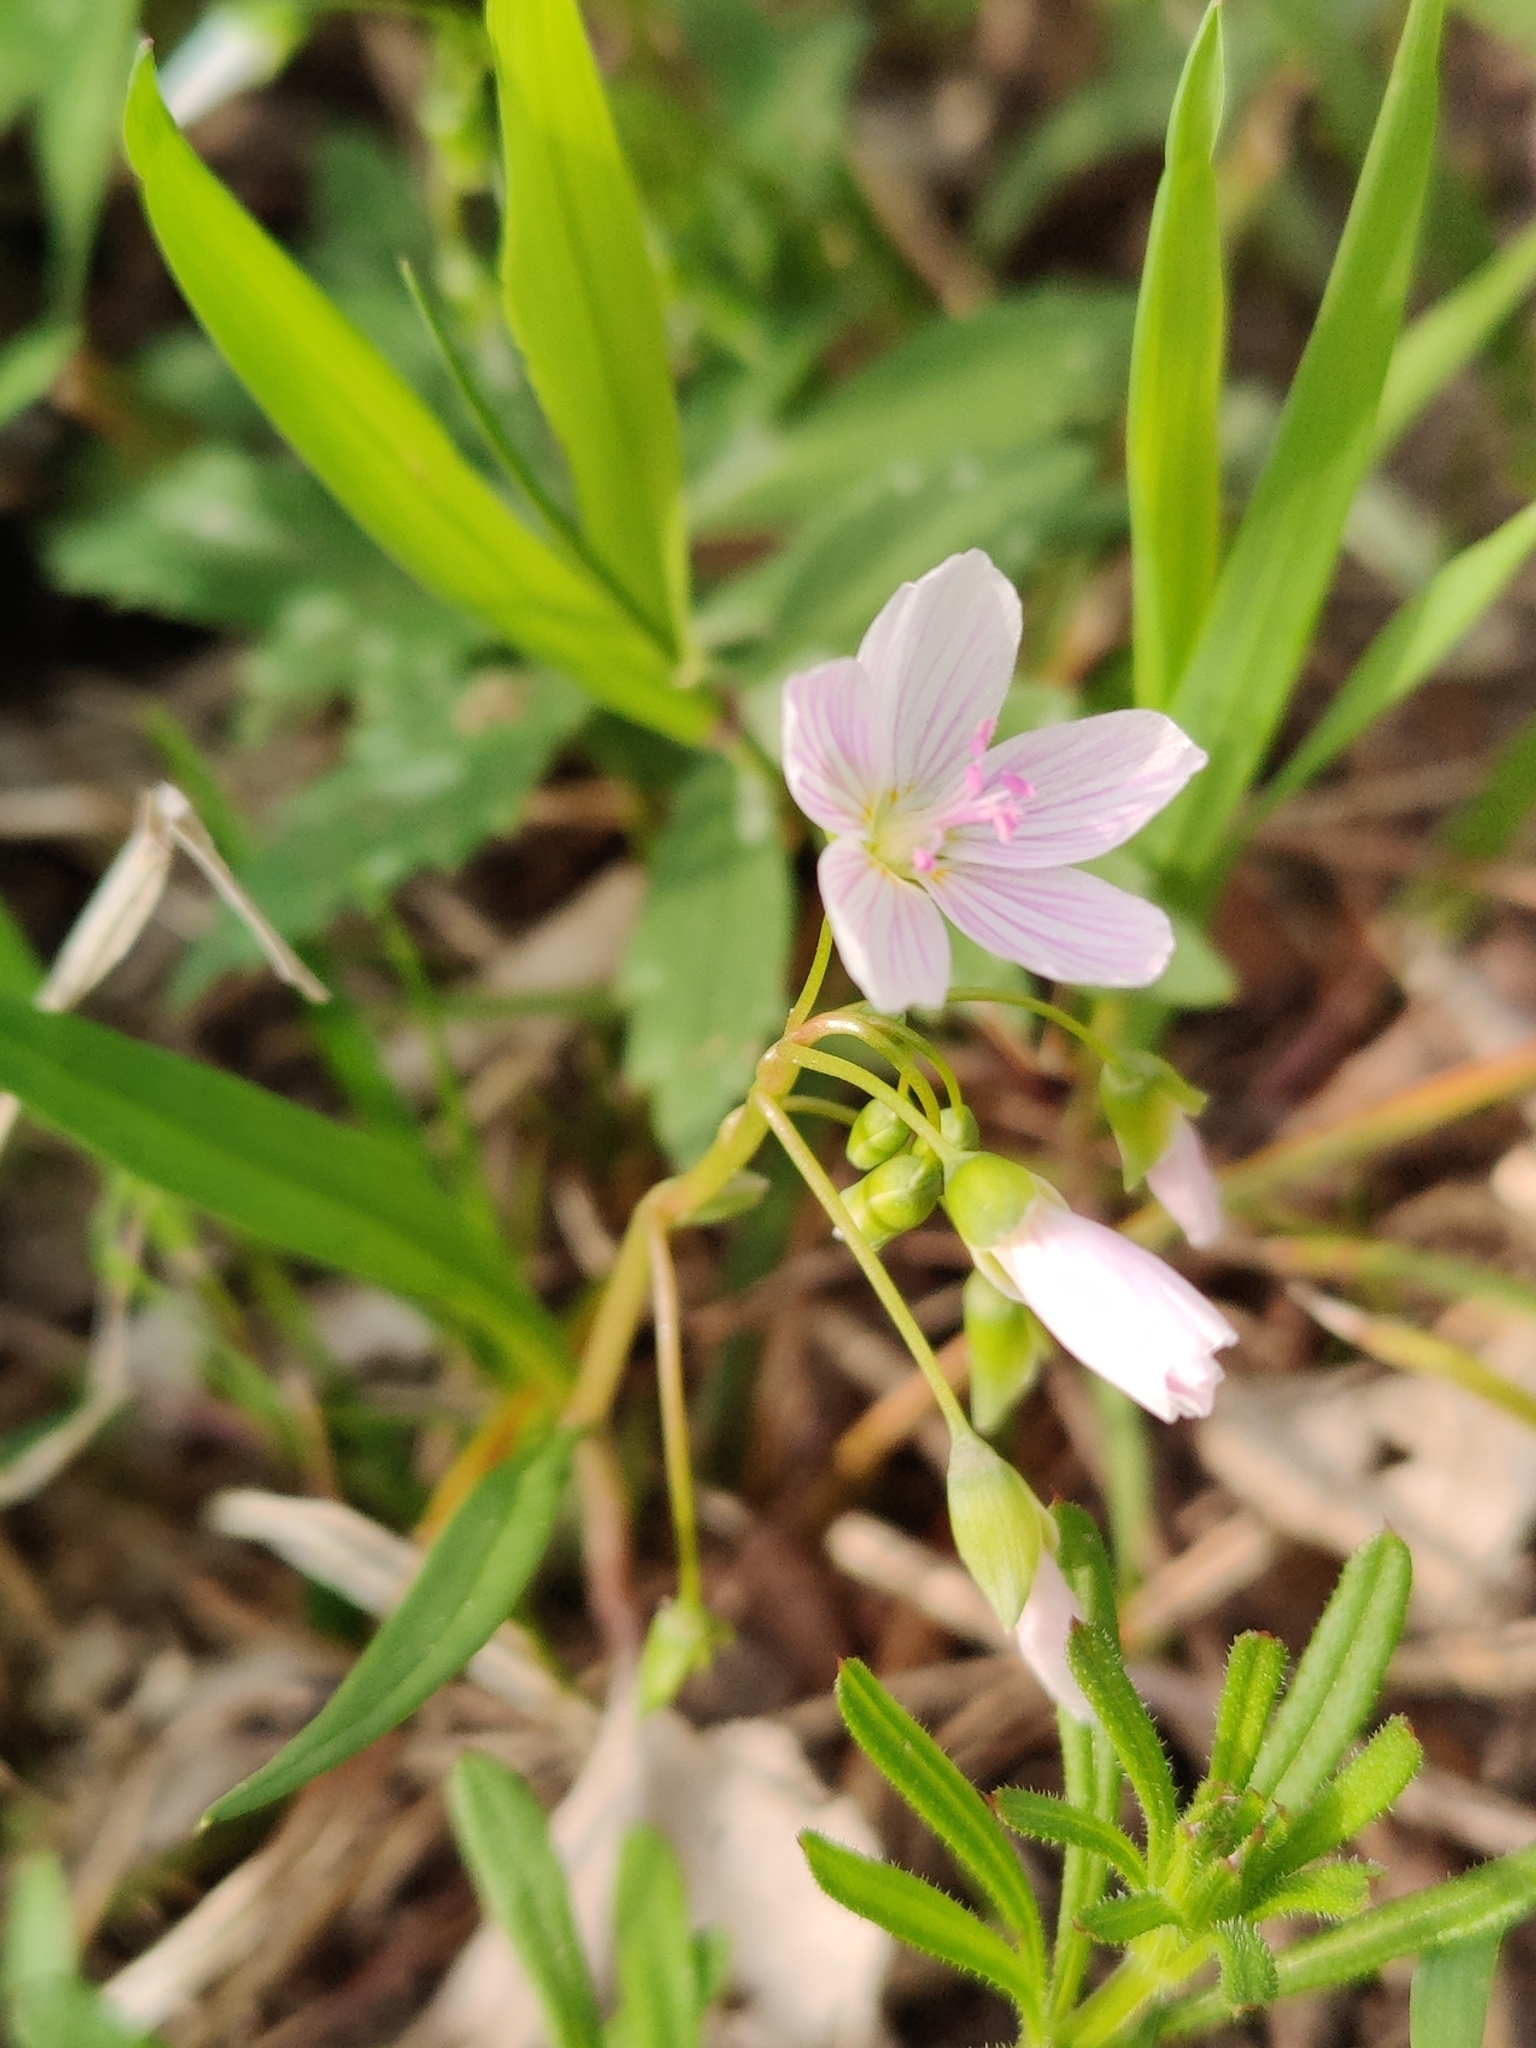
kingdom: Plantae
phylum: Tracheophyta
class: Magnoliopsida
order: Caryophyllales
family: Montiaceae
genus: Claytonia
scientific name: Claytonia virginica
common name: Virginia springbeauty
